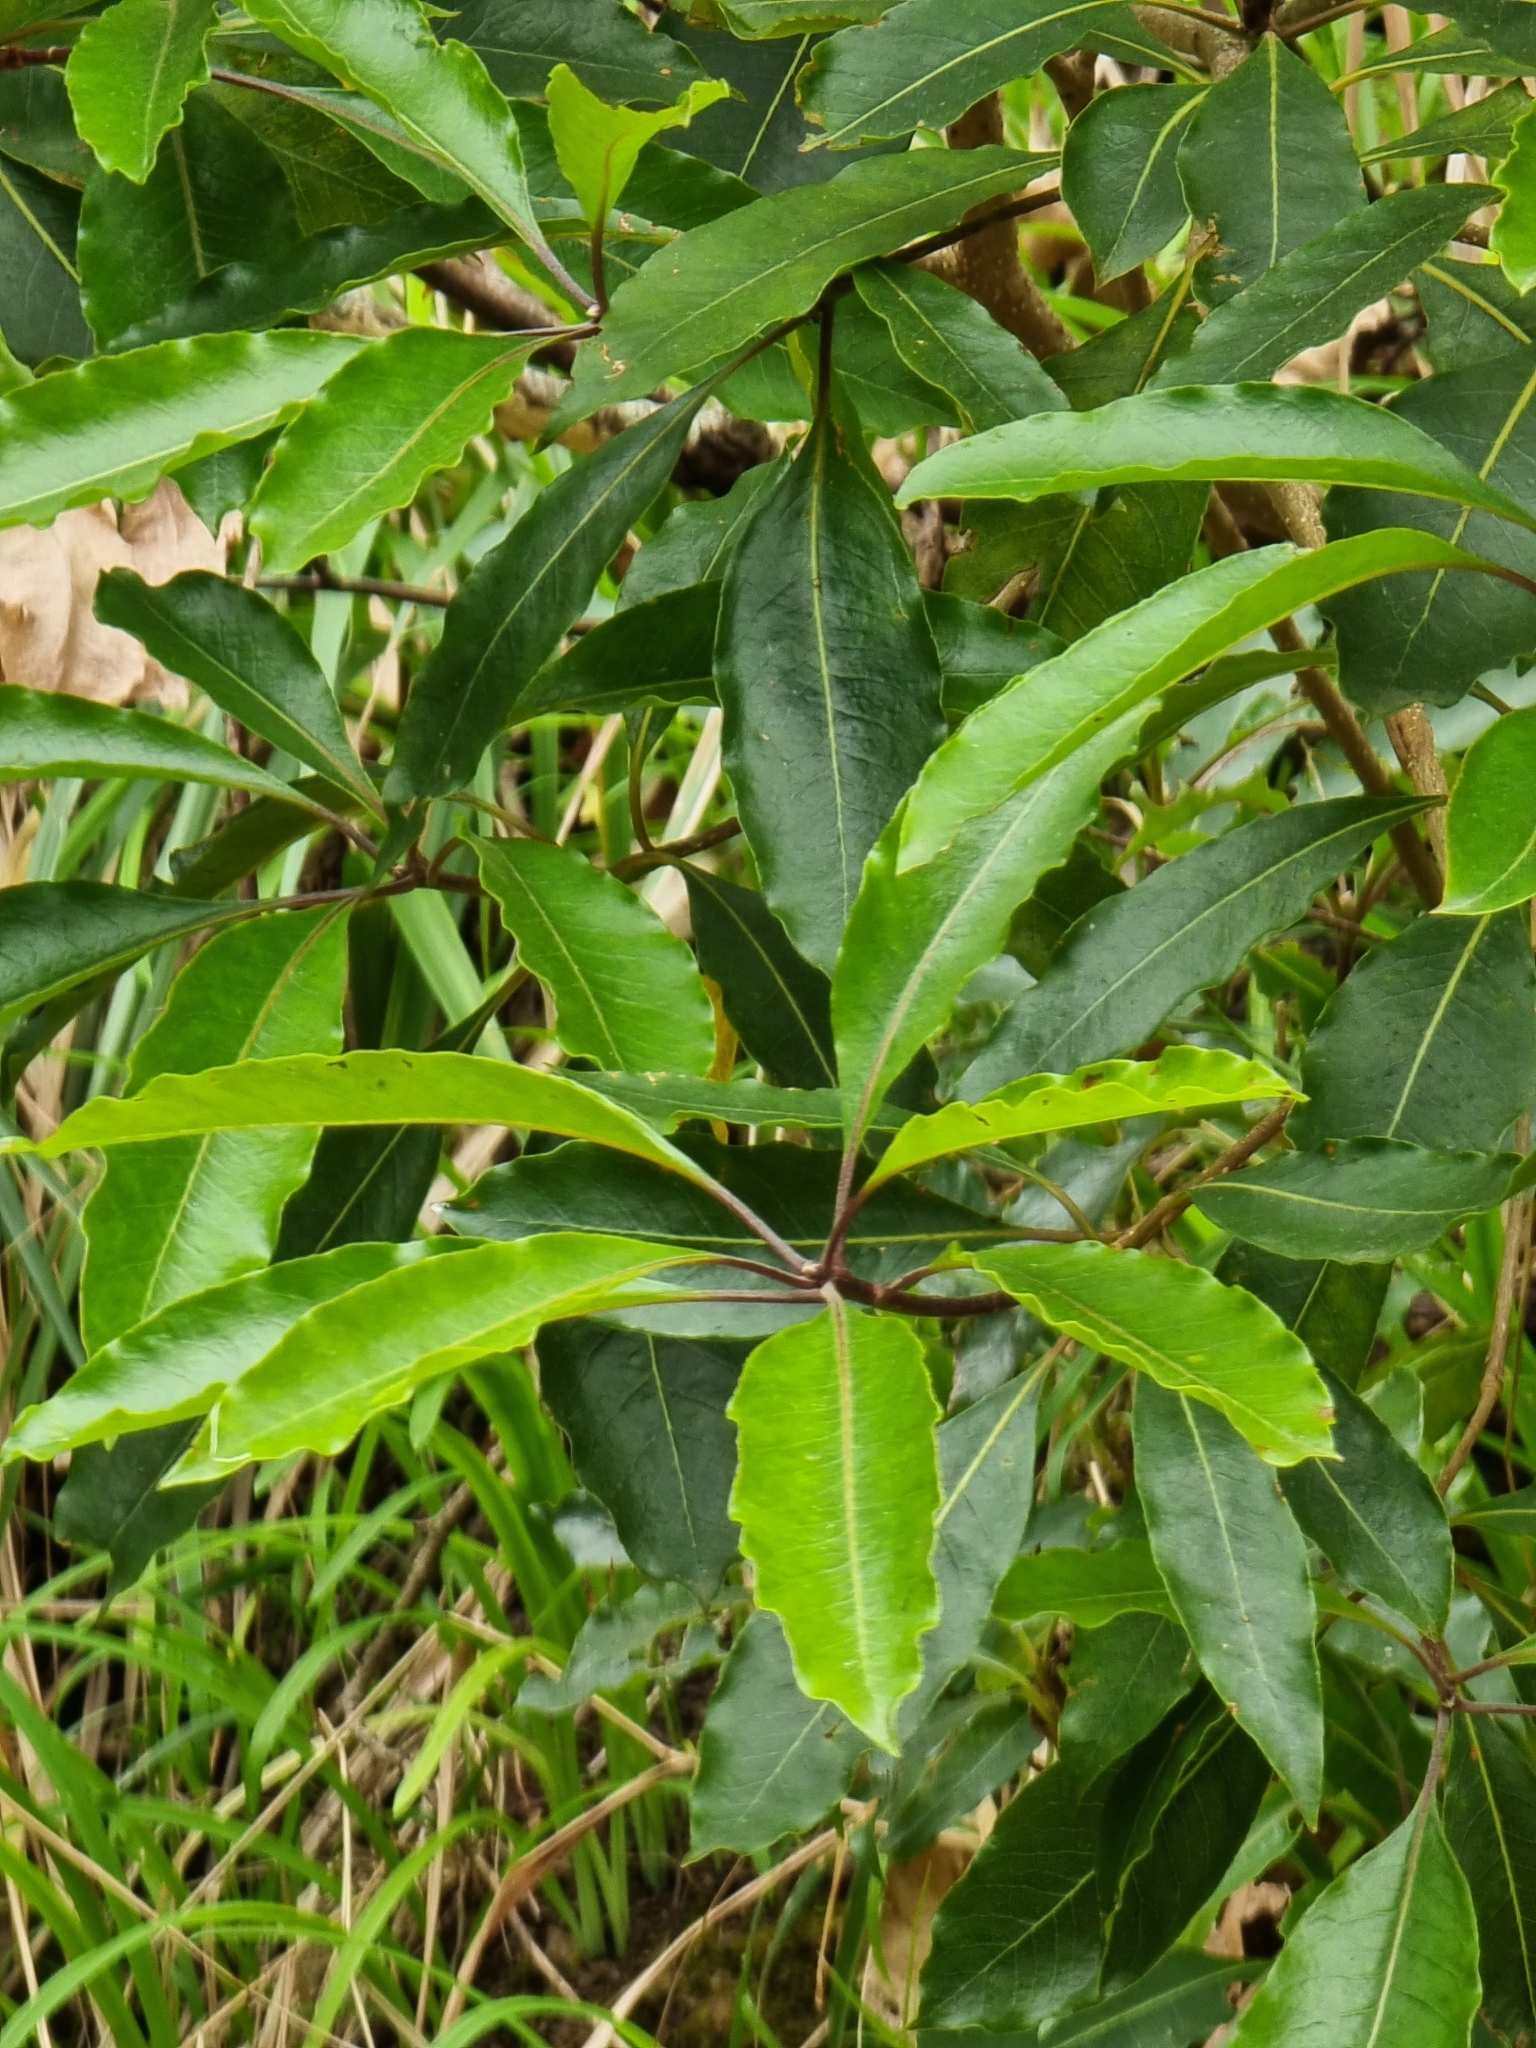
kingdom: Plantae
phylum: Tracheophyta
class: Magnoliopsida
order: Apiales
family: Pittosporaceae
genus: Pittosporum
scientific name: Pittosporum undulatum
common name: Australian cheesewood
